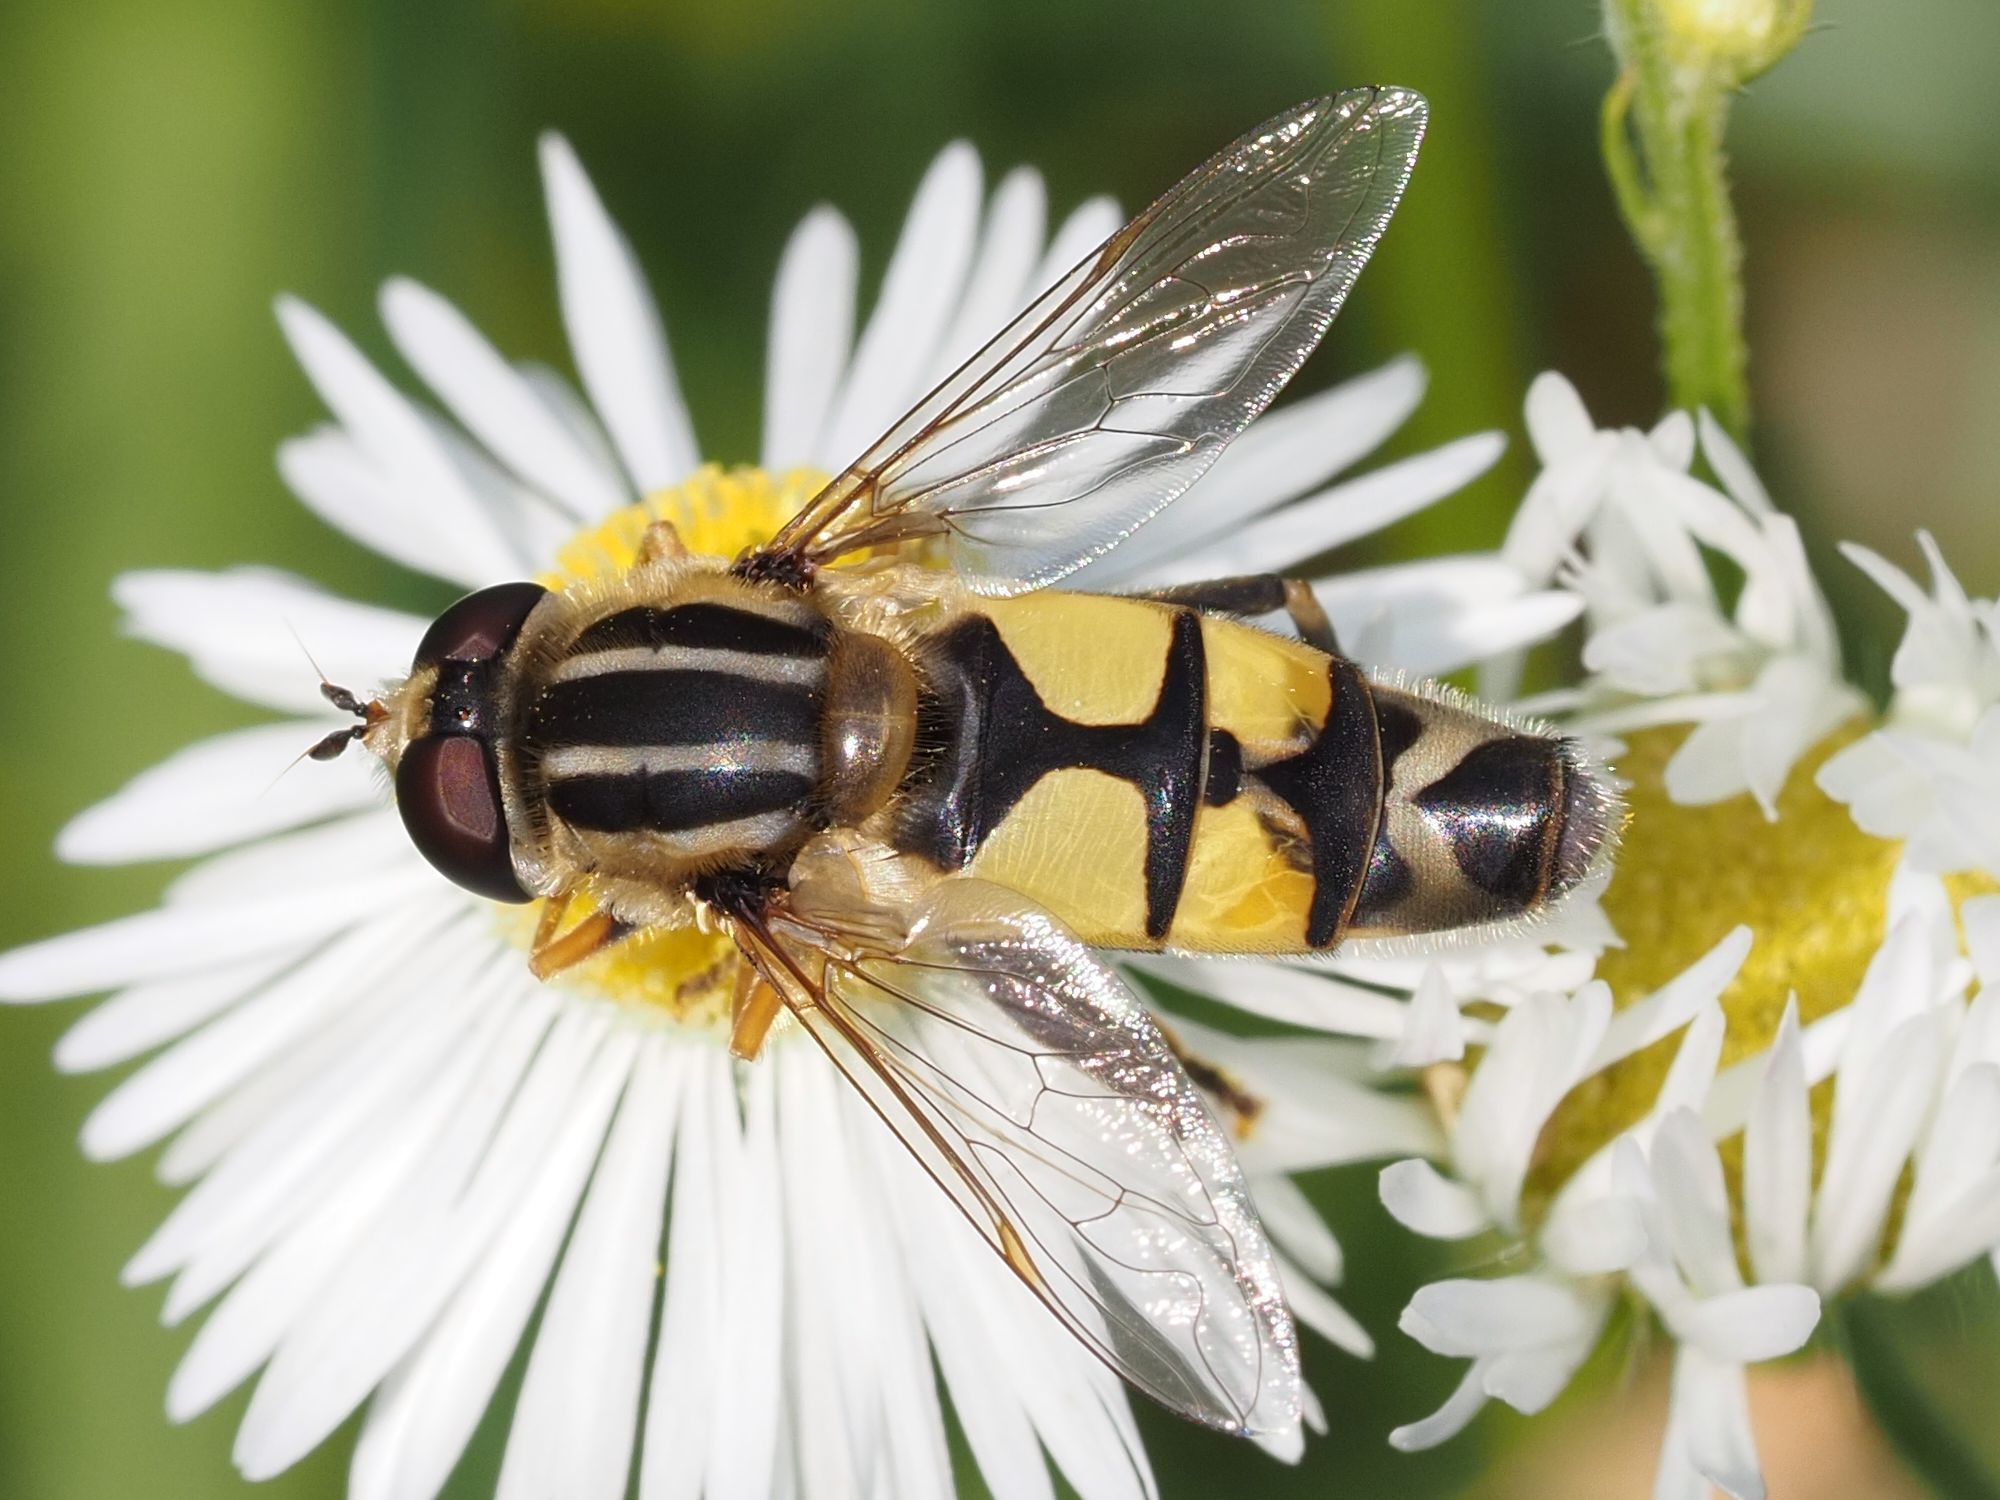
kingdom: Animalia
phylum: Arthropoda
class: Insecta
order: Diptera
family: Syrphidae
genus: Helophilus
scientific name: Helophilus trivittatus
